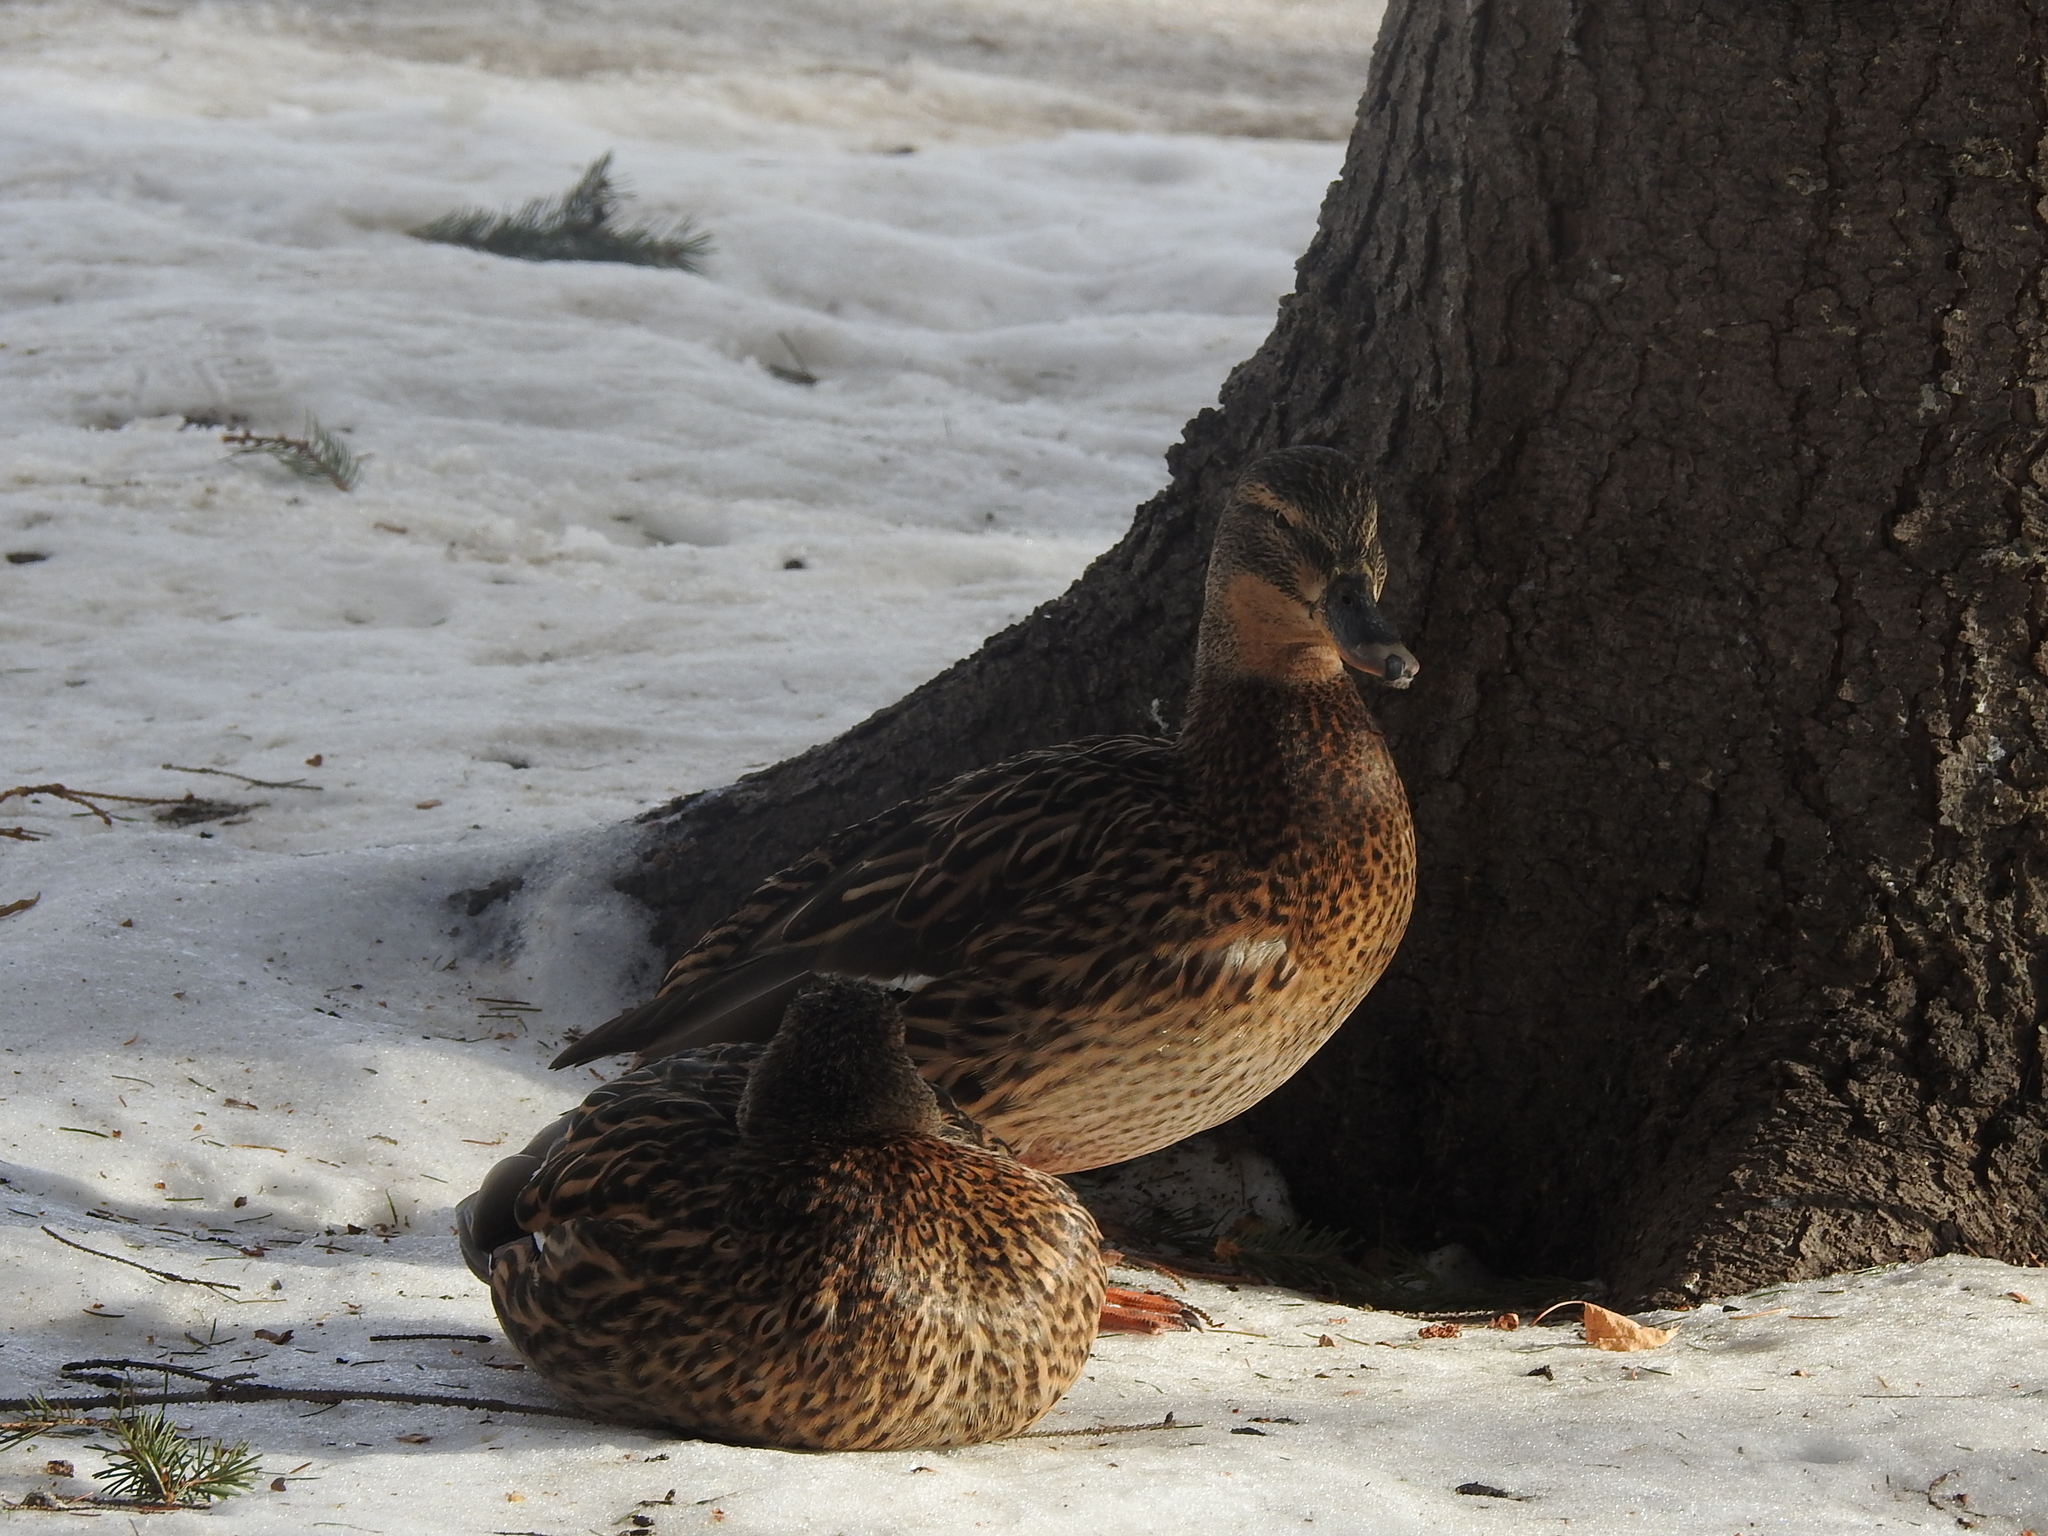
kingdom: Animalia
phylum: Chordata
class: Aves
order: Anseriformes
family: Anatidae
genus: Anas
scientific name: Anas platyrhynchos
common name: Mallard
